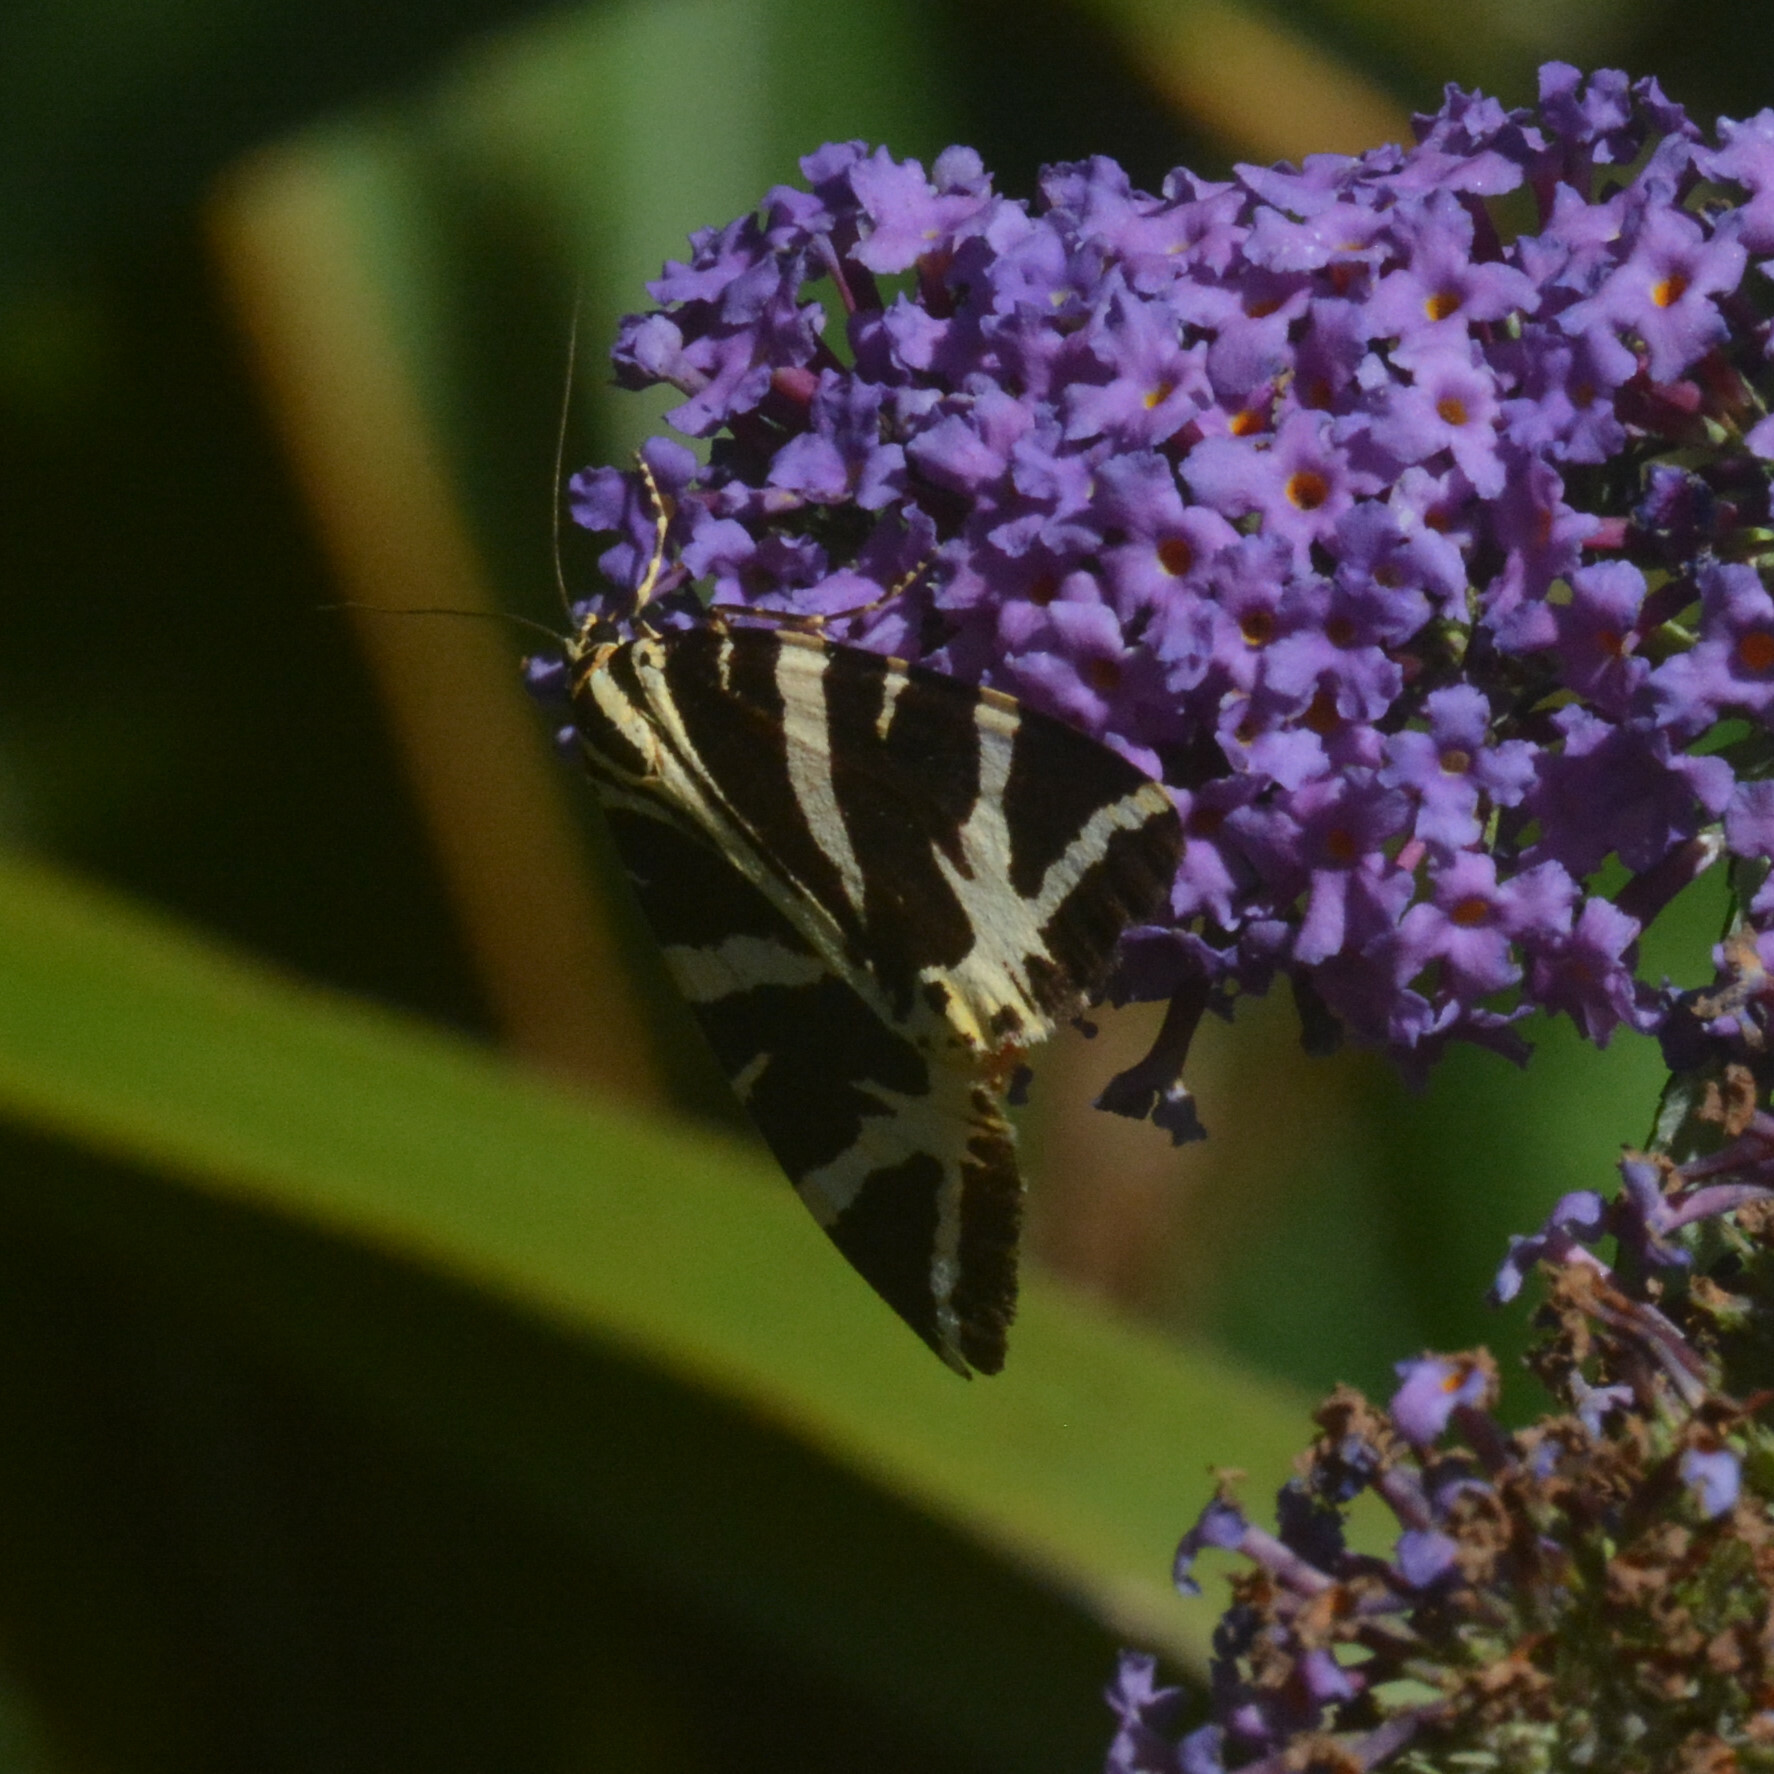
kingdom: Animalia
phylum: Arthropoda
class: Insecta
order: Lepidoptera
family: Erebidae
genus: Euplagia
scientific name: Euplagia quadripunctaria
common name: Jersey tiger
